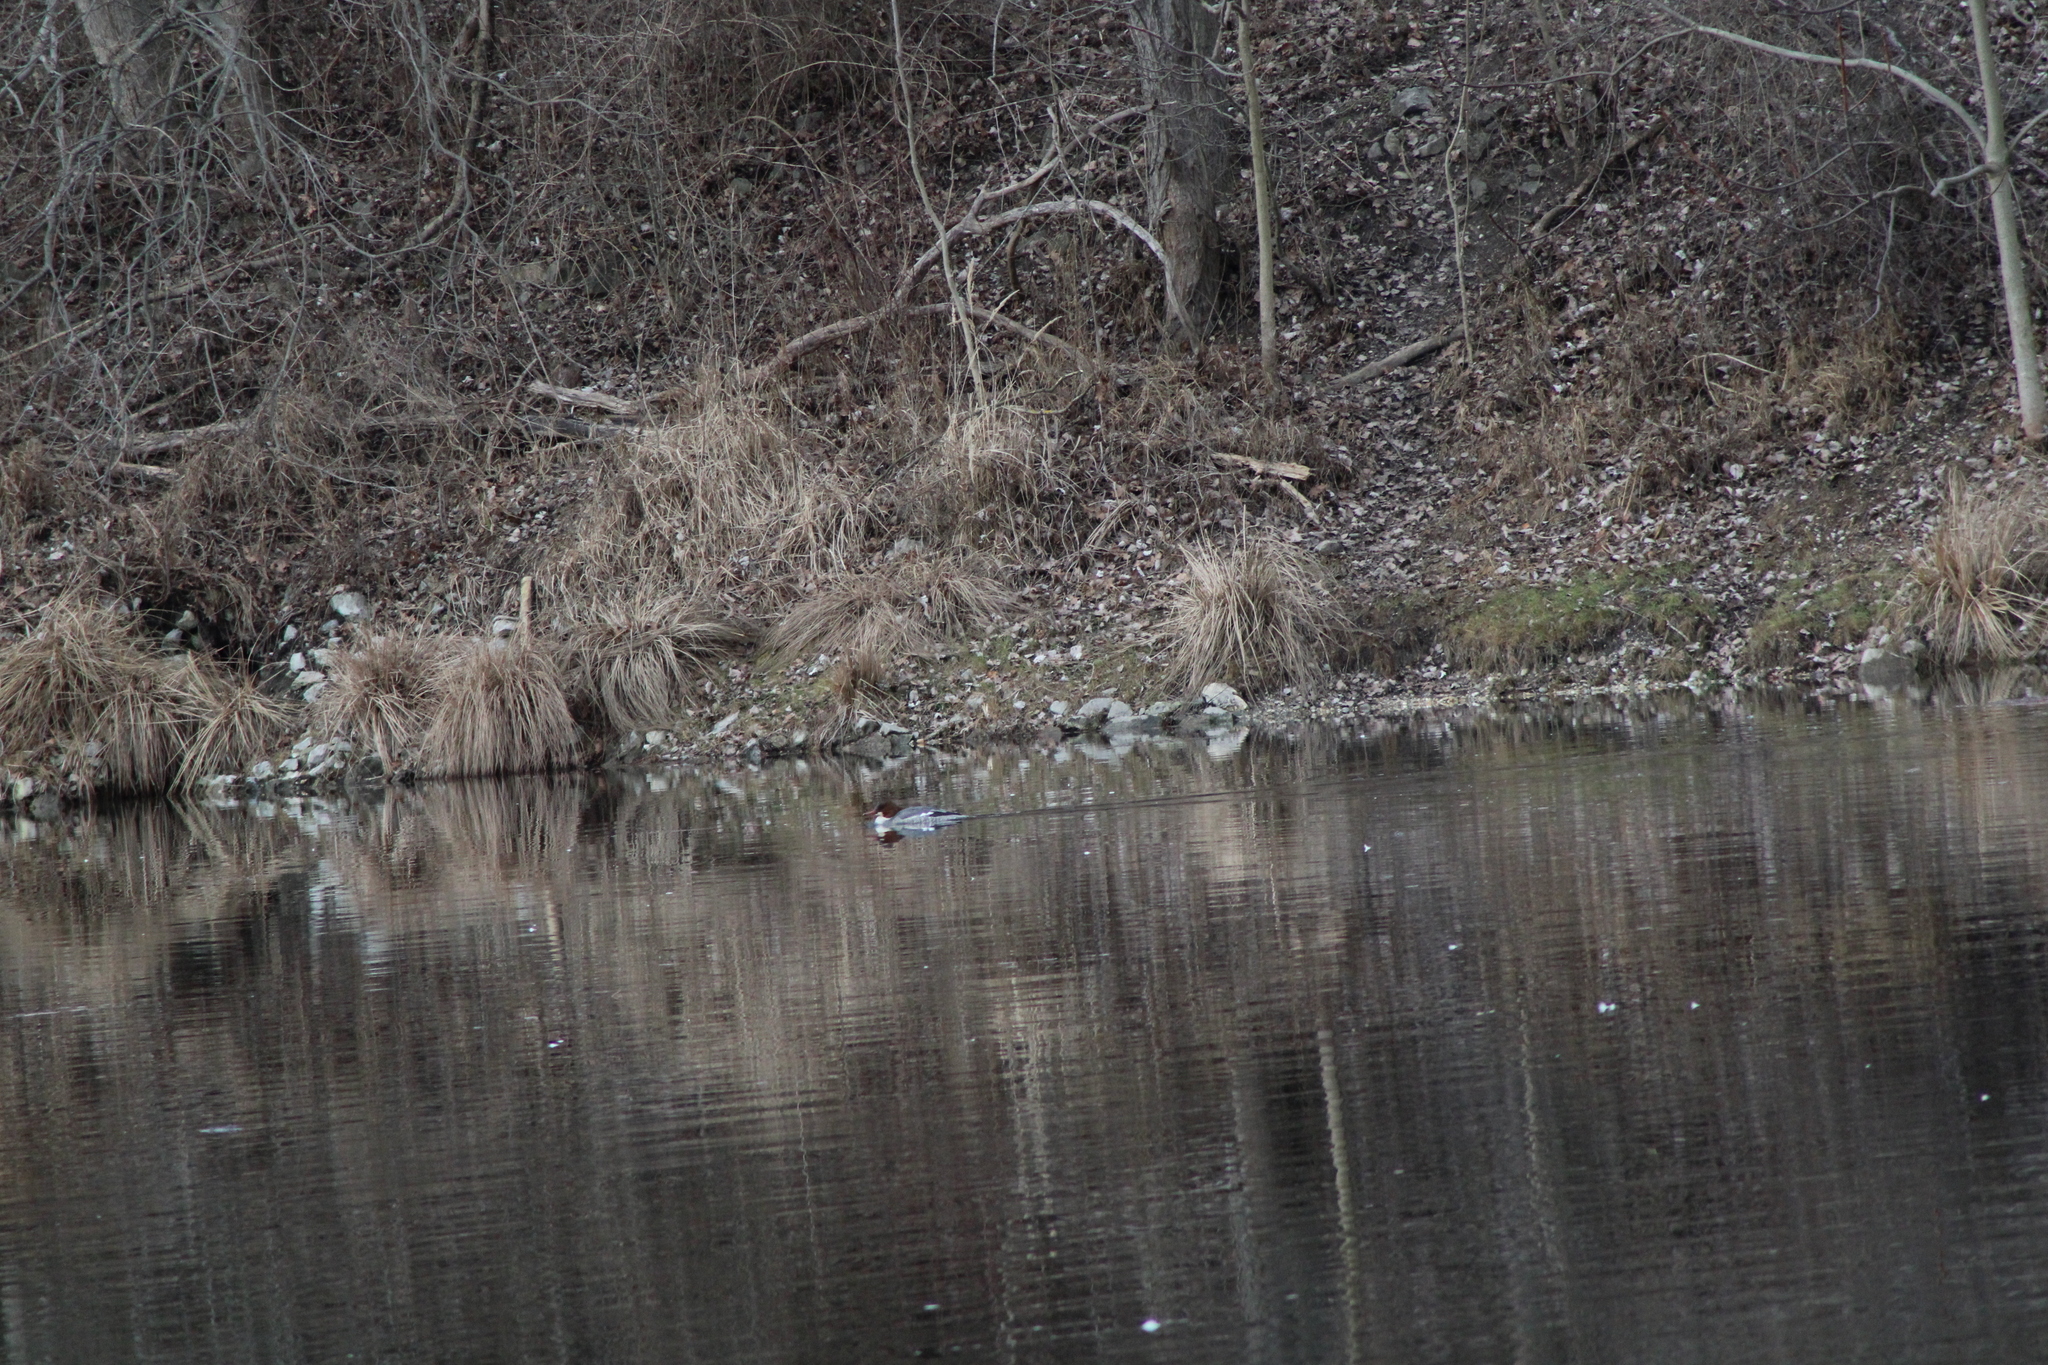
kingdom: Animalia
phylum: Chordata
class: Aves
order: Anseriformes
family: Anatidae
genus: Mergus
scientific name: Mergus merganser
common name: Common merganser
